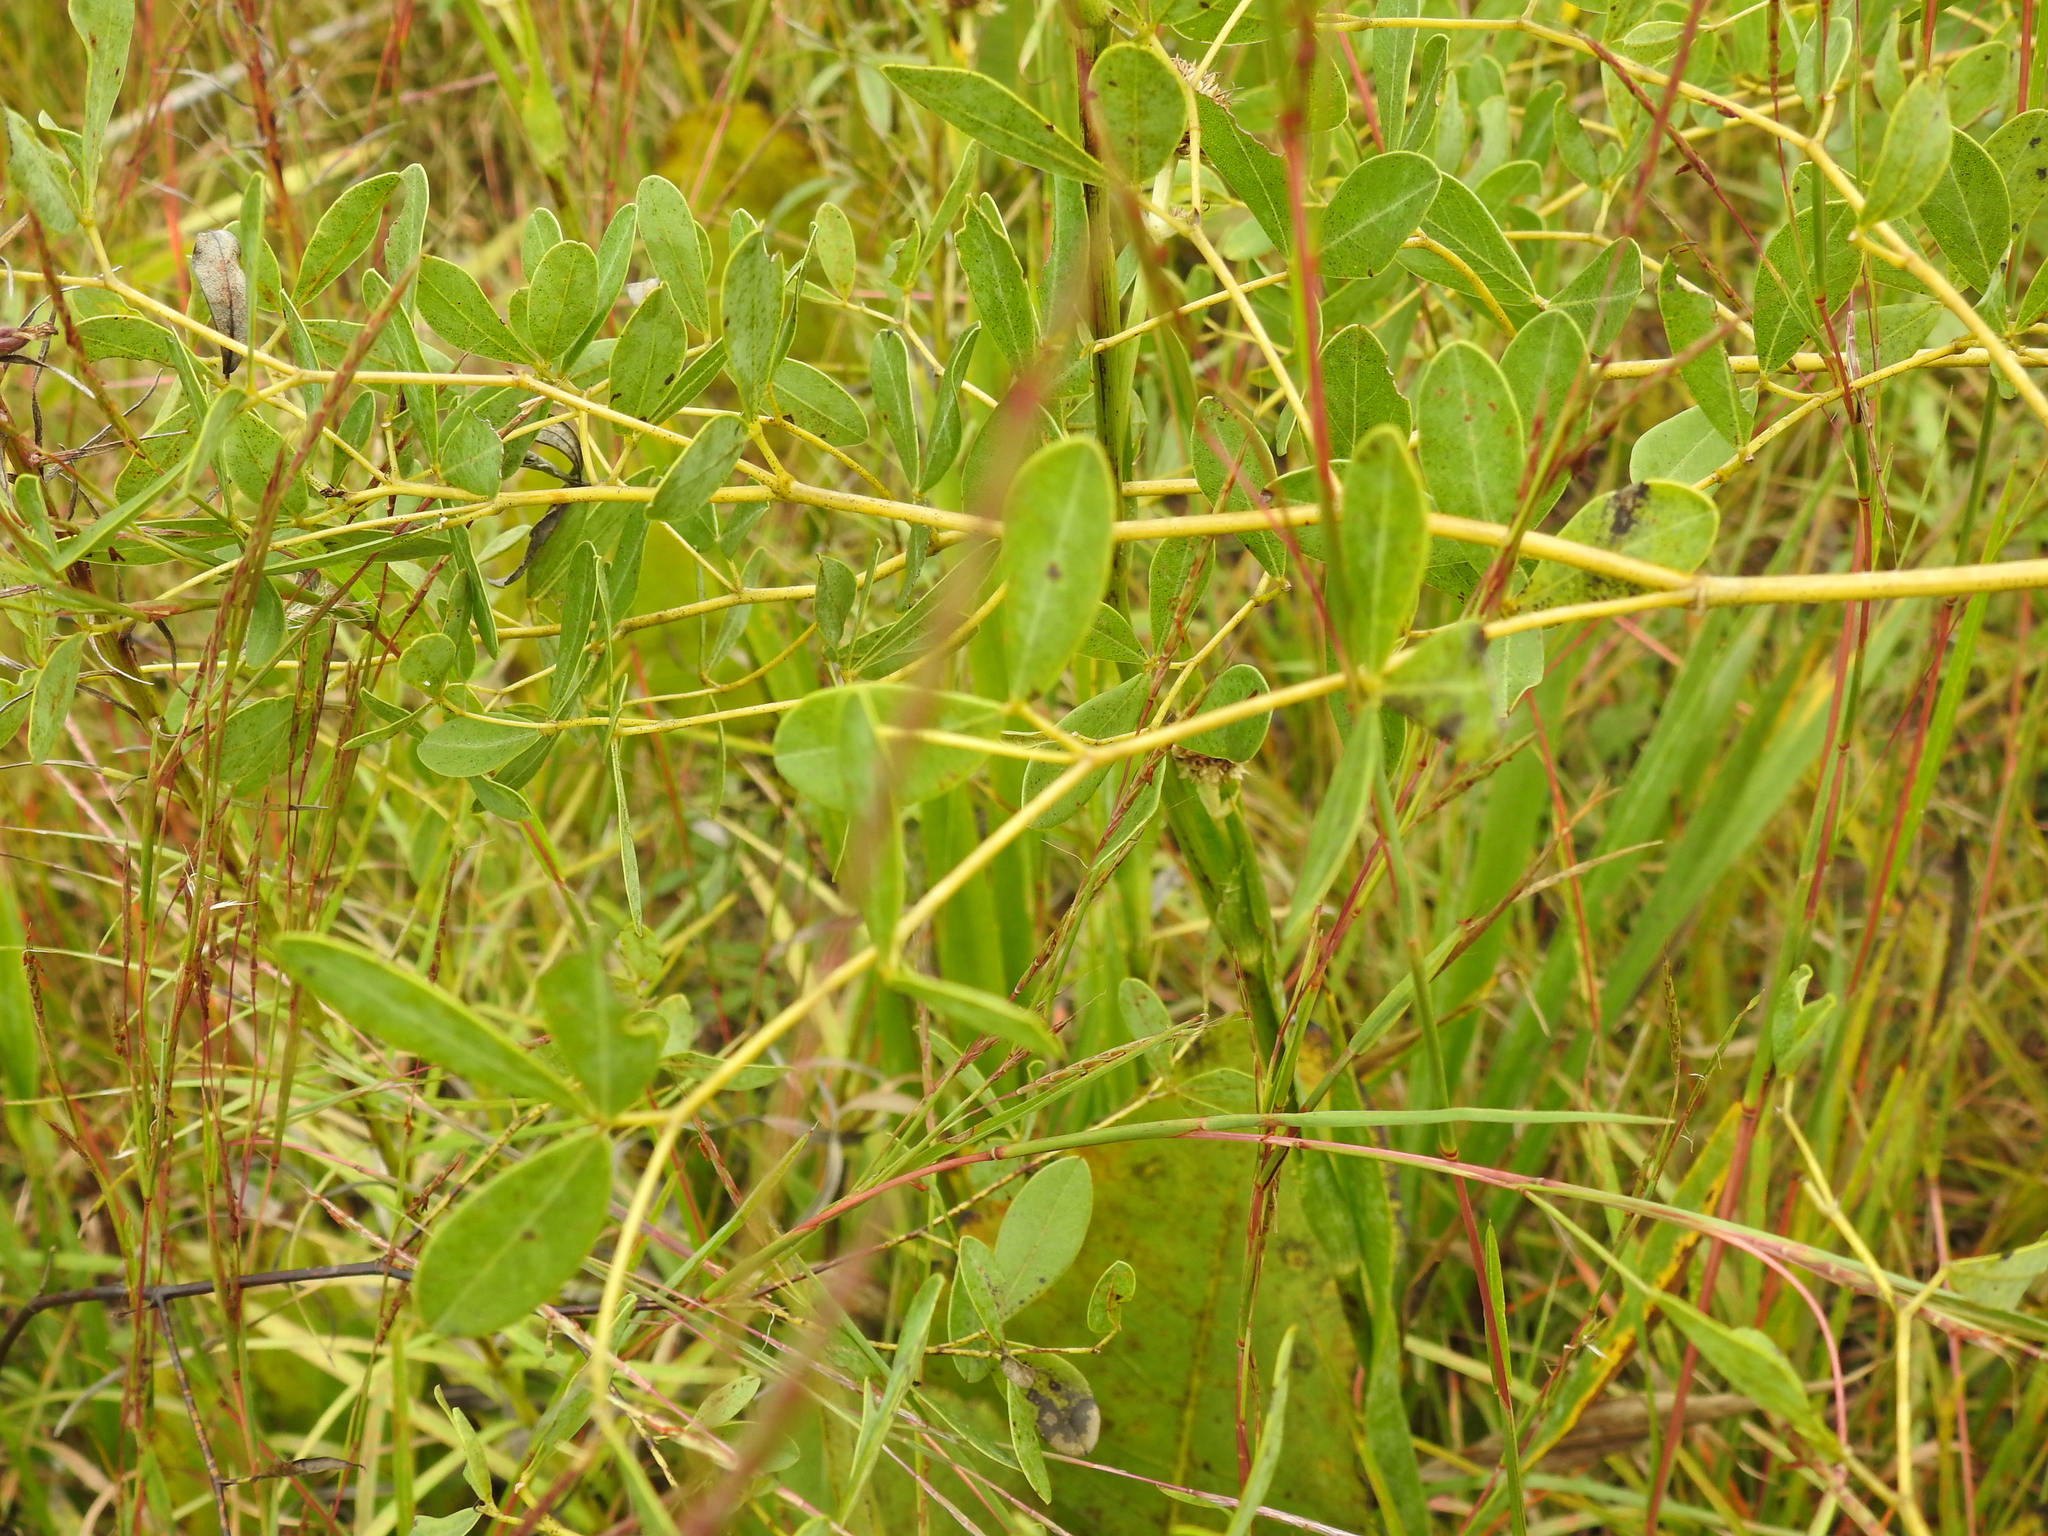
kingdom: Plantae
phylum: Tracheophyta
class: Magnoliopsida
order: Fabales
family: Fabaceae
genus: Baptisia
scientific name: Baptisia alba
